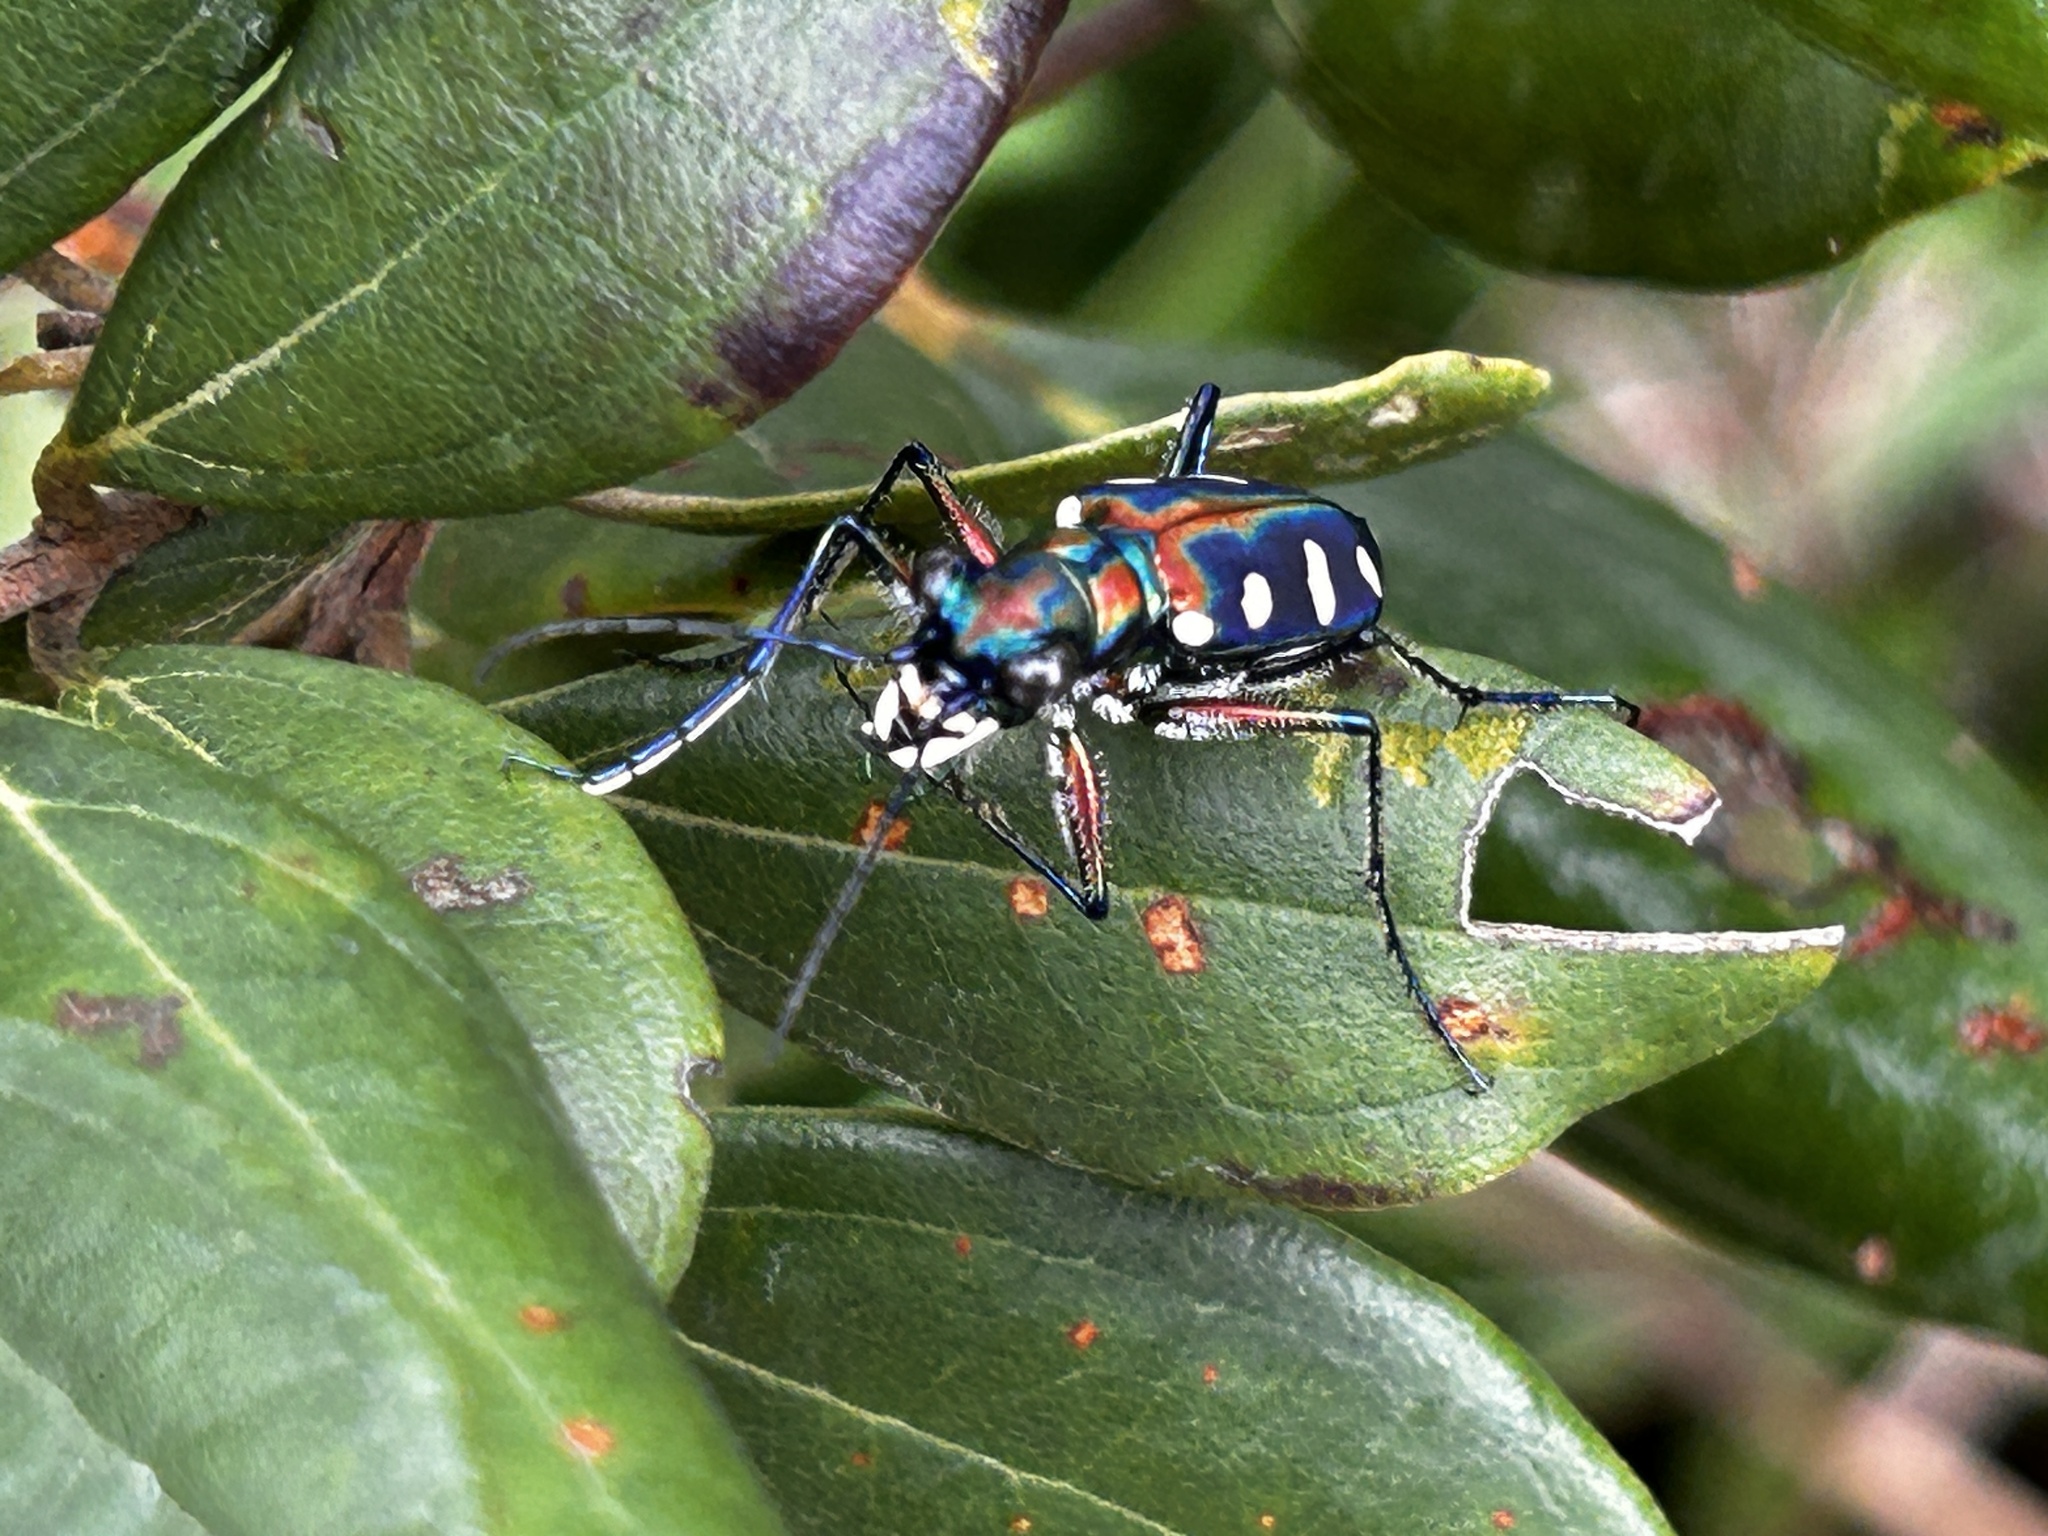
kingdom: Animalia
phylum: Arthropoda
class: Insecta
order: Coleoptera
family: Carabidae
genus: Cicindela
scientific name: Cicindela aurulenta
